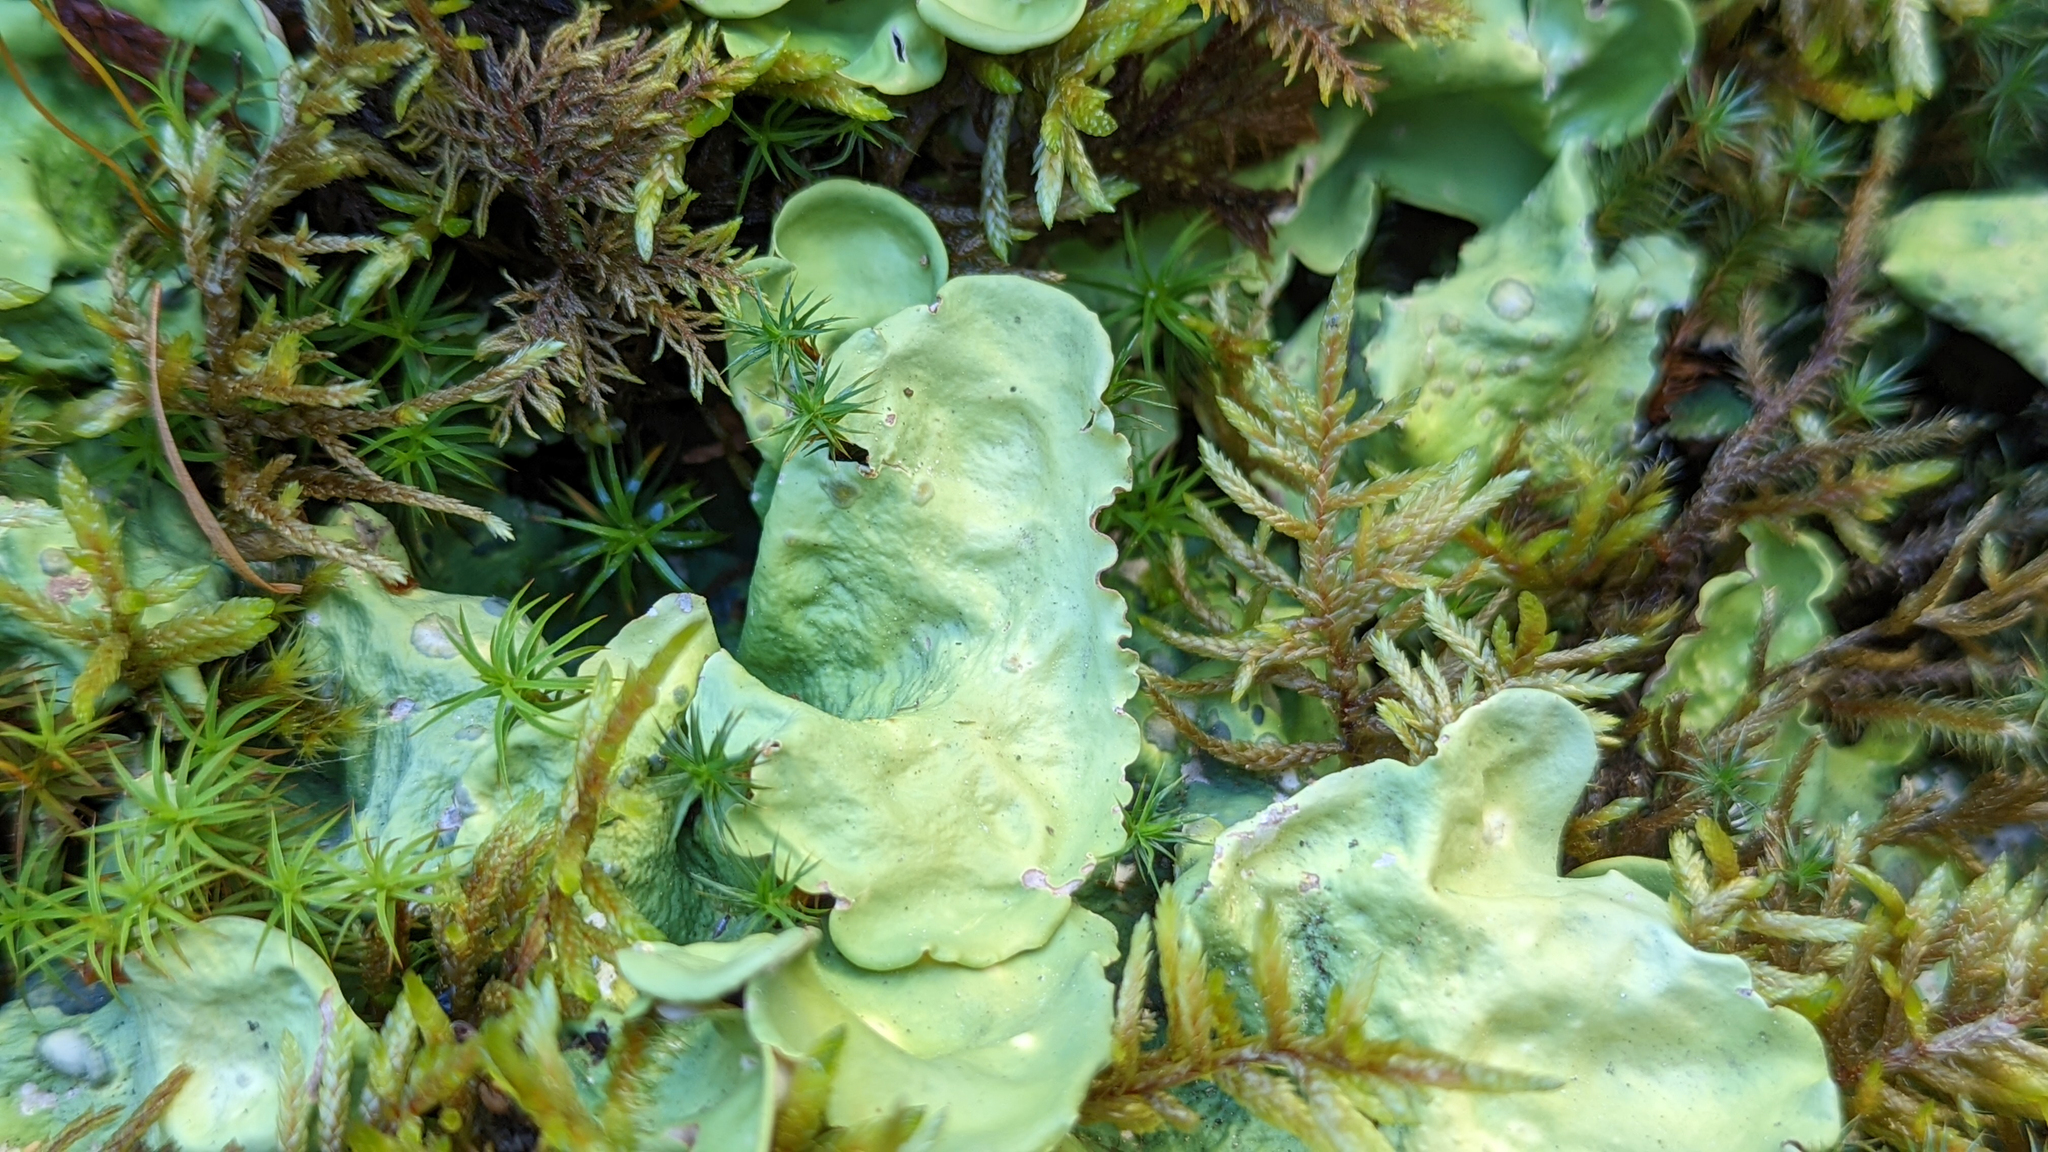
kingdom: Fungi
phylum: Ascomycota
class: Lecanoromycetes
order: Peltigerales
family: Nephromataceae
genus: Nephroma
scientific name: Nephroma arcticum
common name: Arctic kidney-lichen
